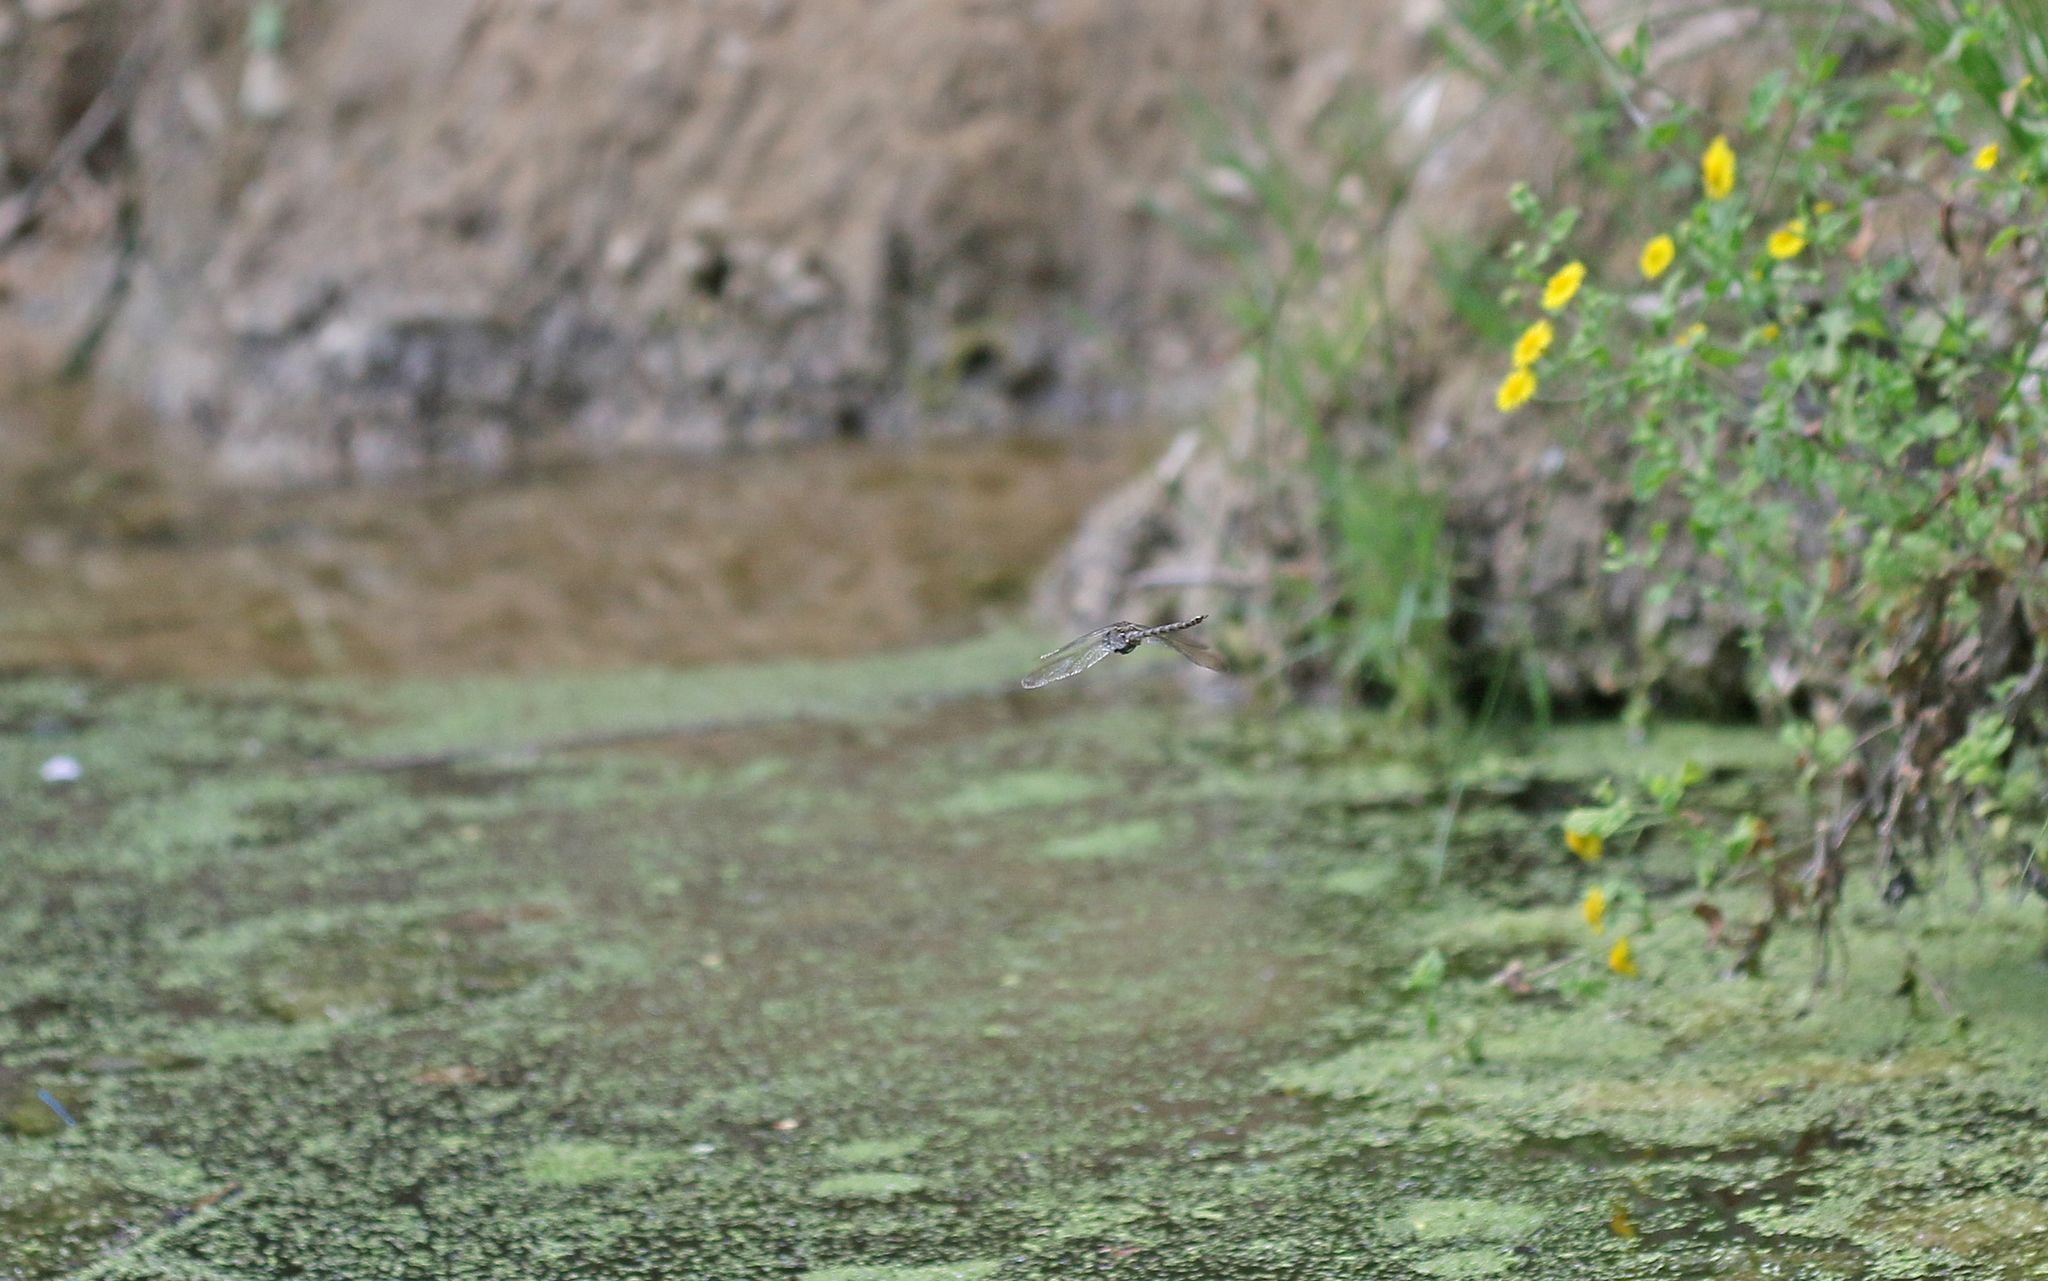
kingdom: Animalia
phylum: Arthropoda
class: Insecta
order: Odonata
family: Aeshnidae
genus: Boyeria
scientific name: Boyeria irene
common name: Western spectre
